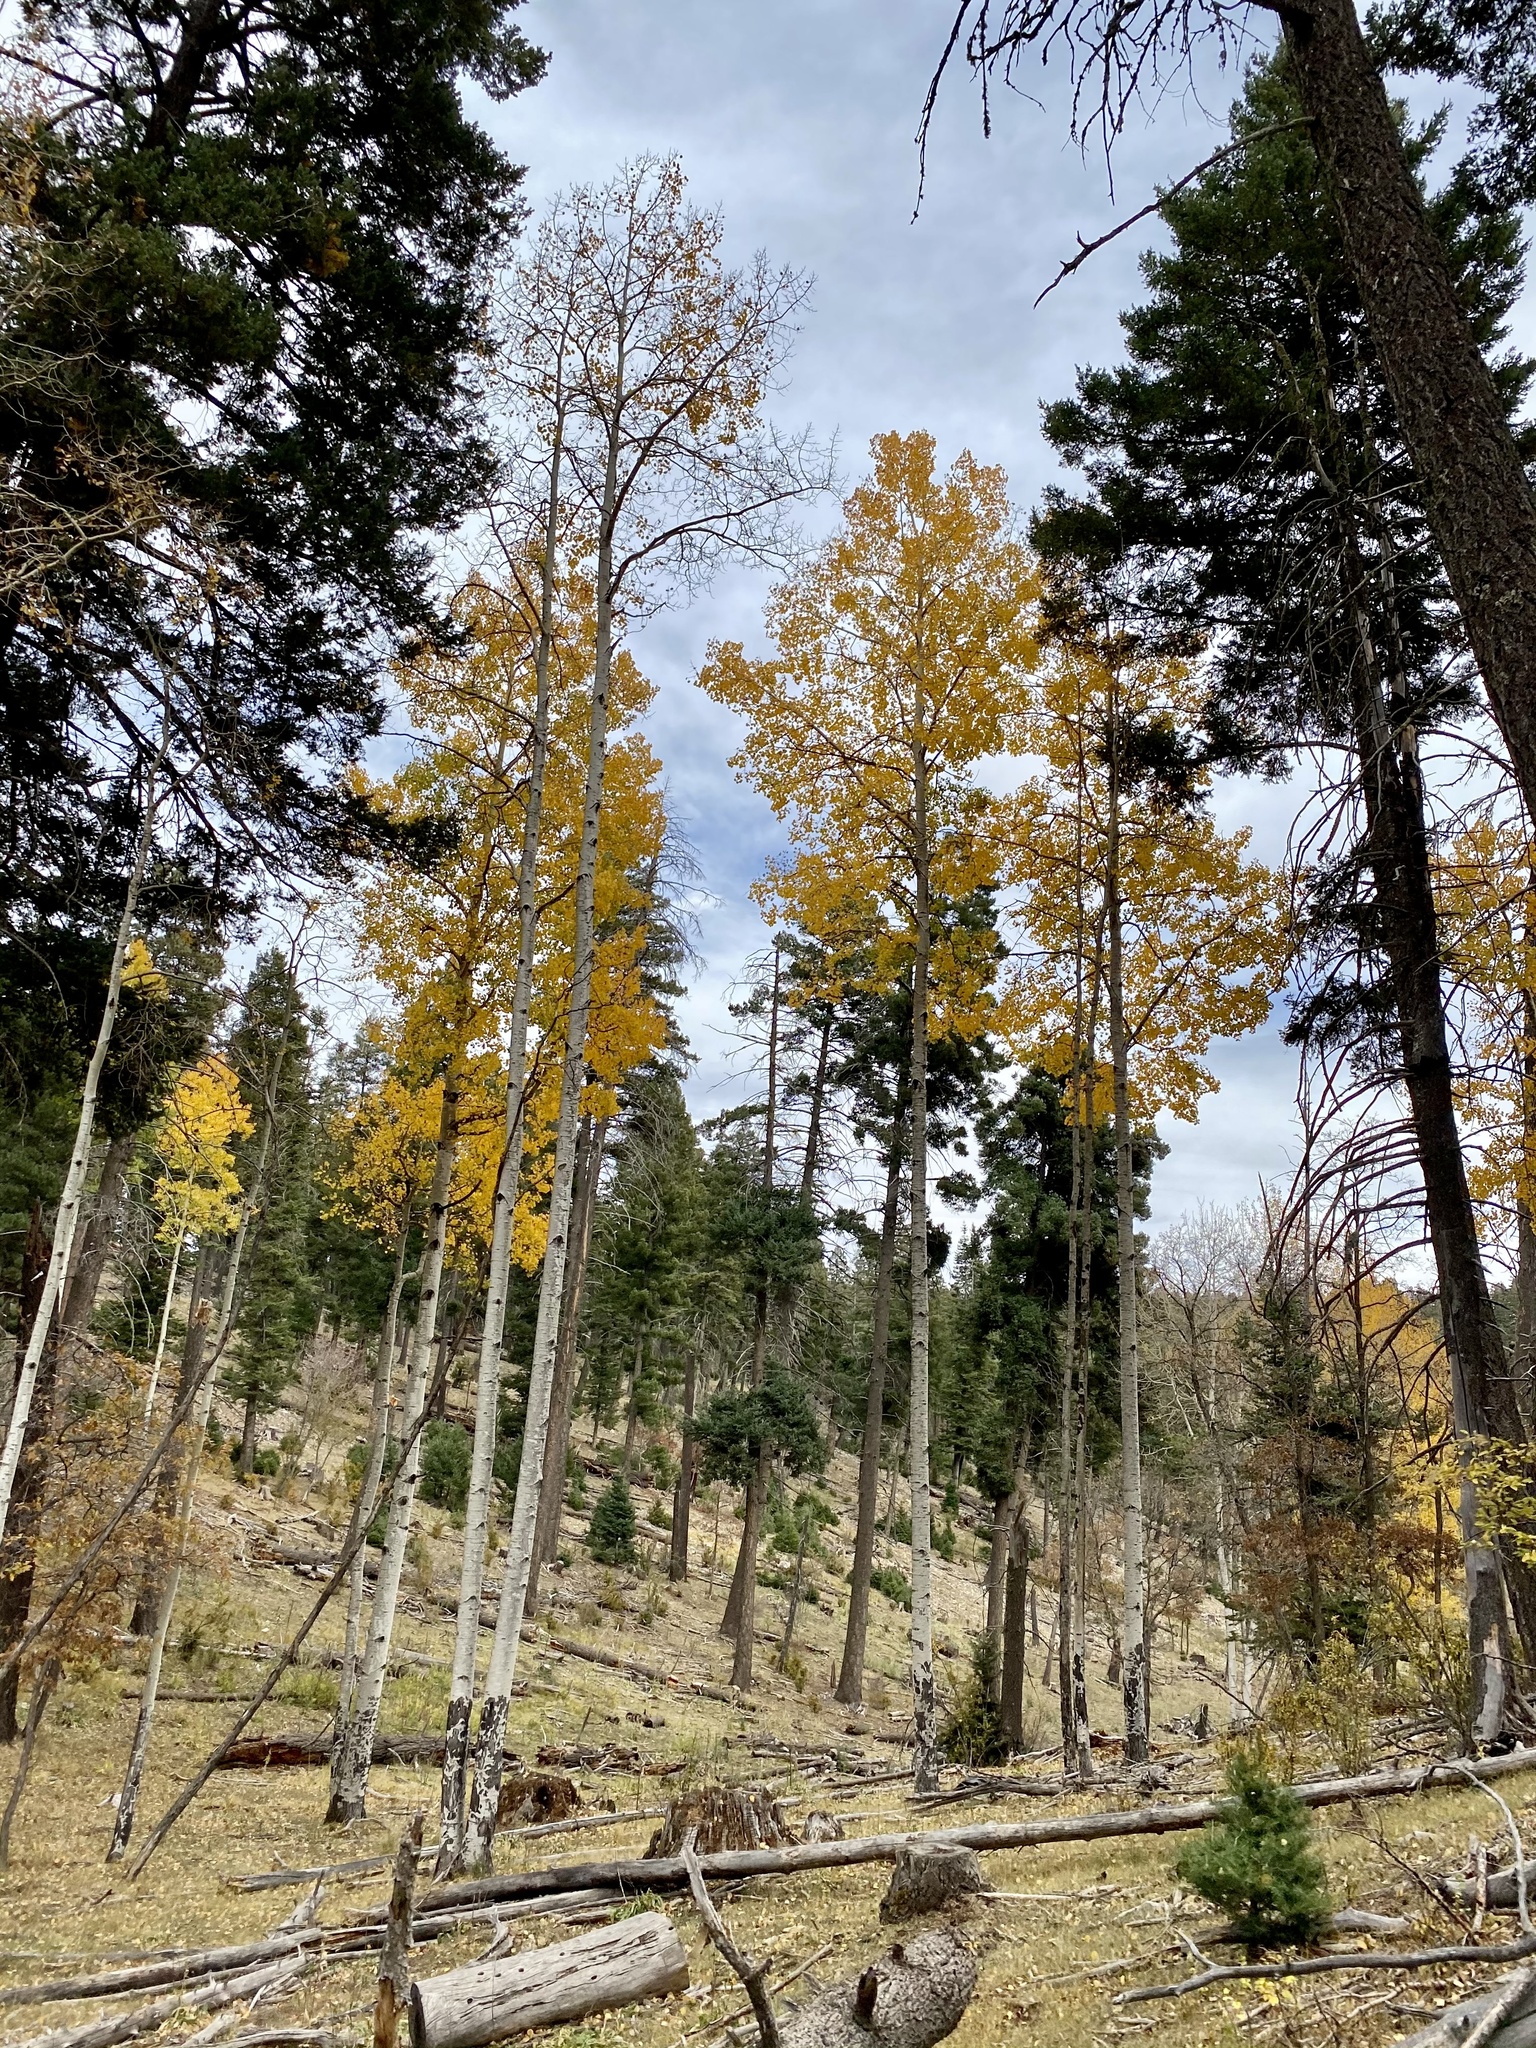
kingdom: Plantae
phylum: Tracheophyta
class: Magnoliopsida
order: Malpighiales
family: Salicaceae
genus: Populus
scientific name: Populus tremuloides
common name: Quaking aspen
